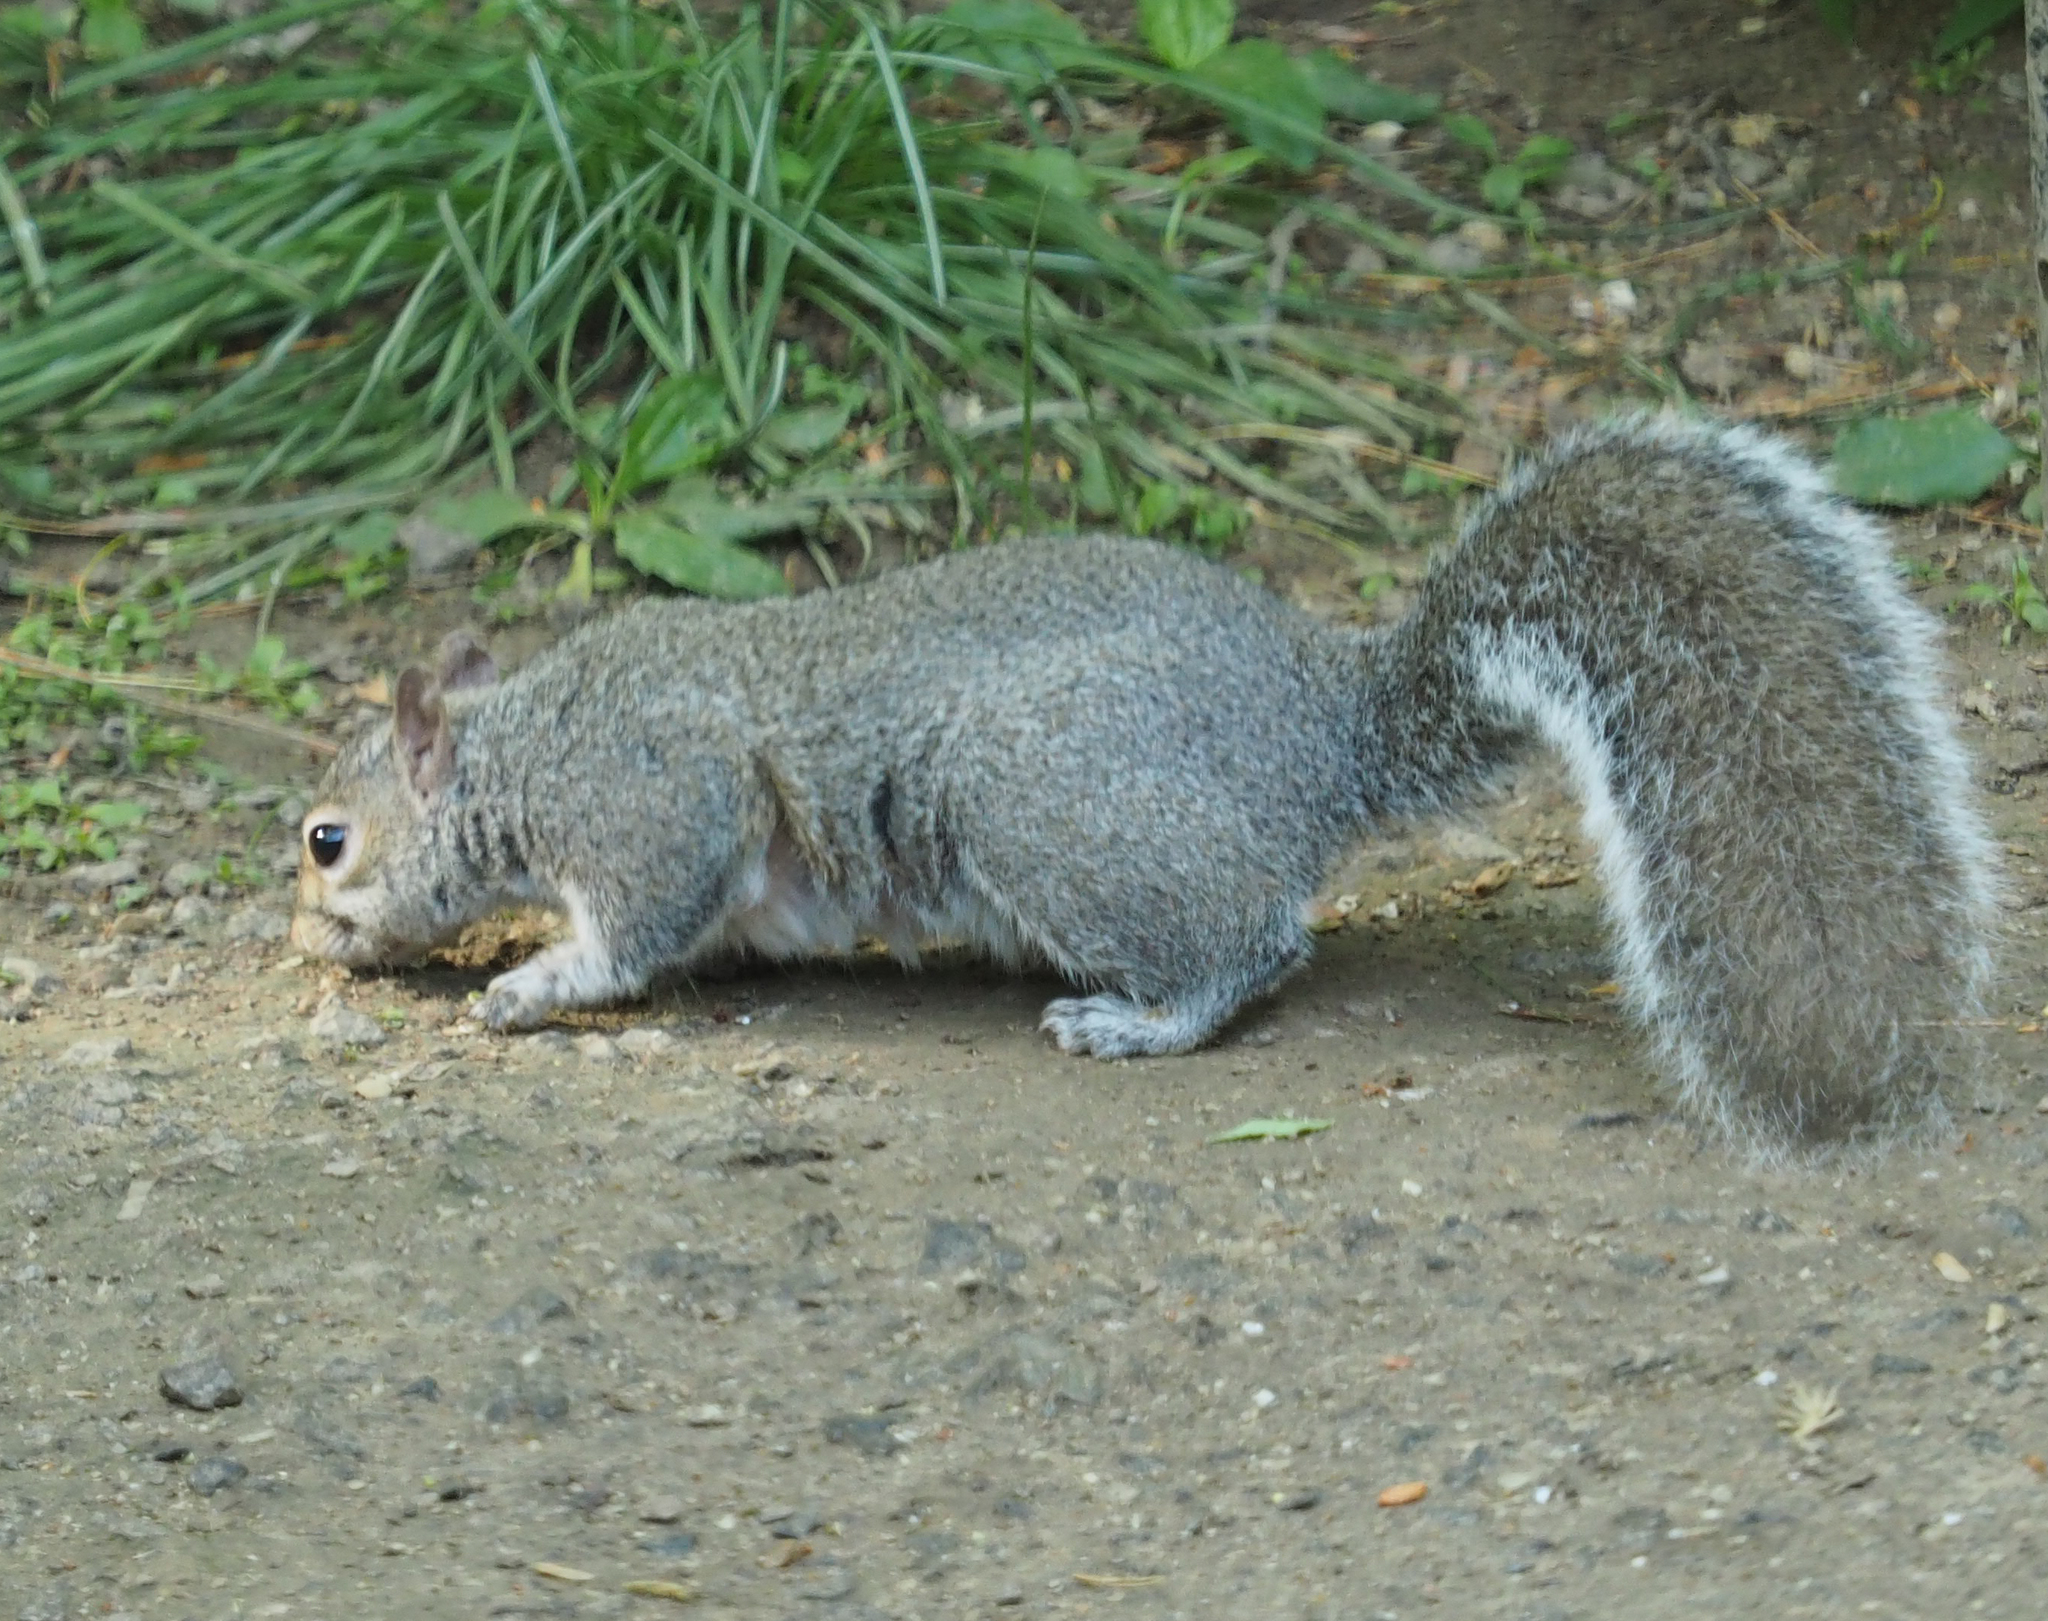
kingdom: Animalia
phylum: Chordata
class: Mammalia
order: Rodentia
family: Sciuridae
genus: Sciurus
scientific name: Sciurus carolinensis
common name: Eastern gray squirrel
